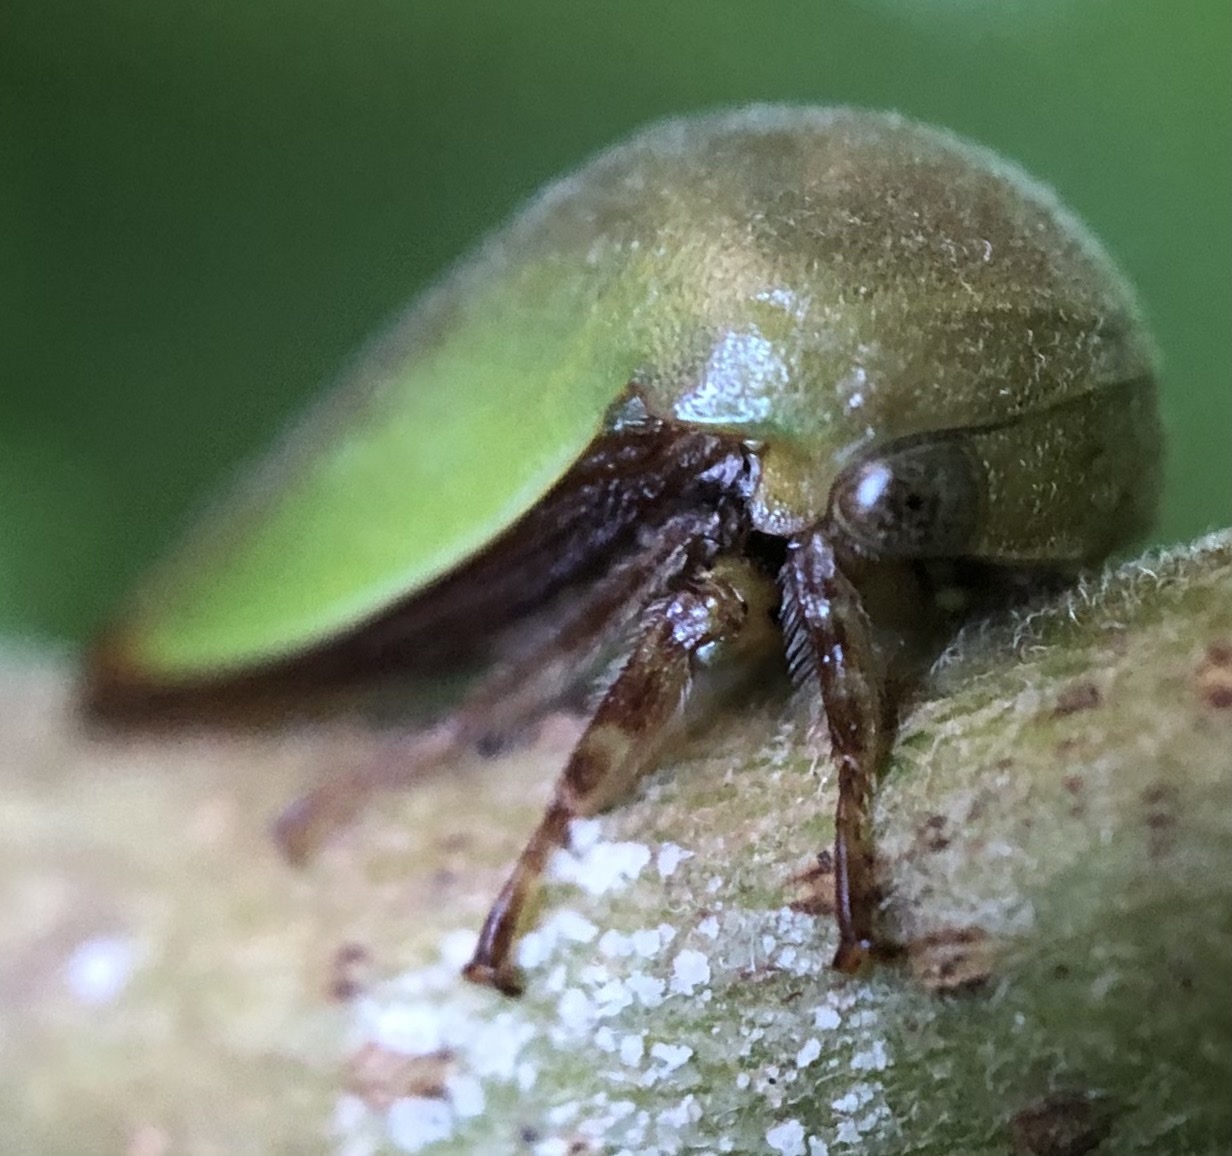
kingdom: Animalia
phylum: Arthropoda
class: Insecta
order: Hemiptera
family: Membracidae
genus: Hebetica
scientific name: Hebetica
